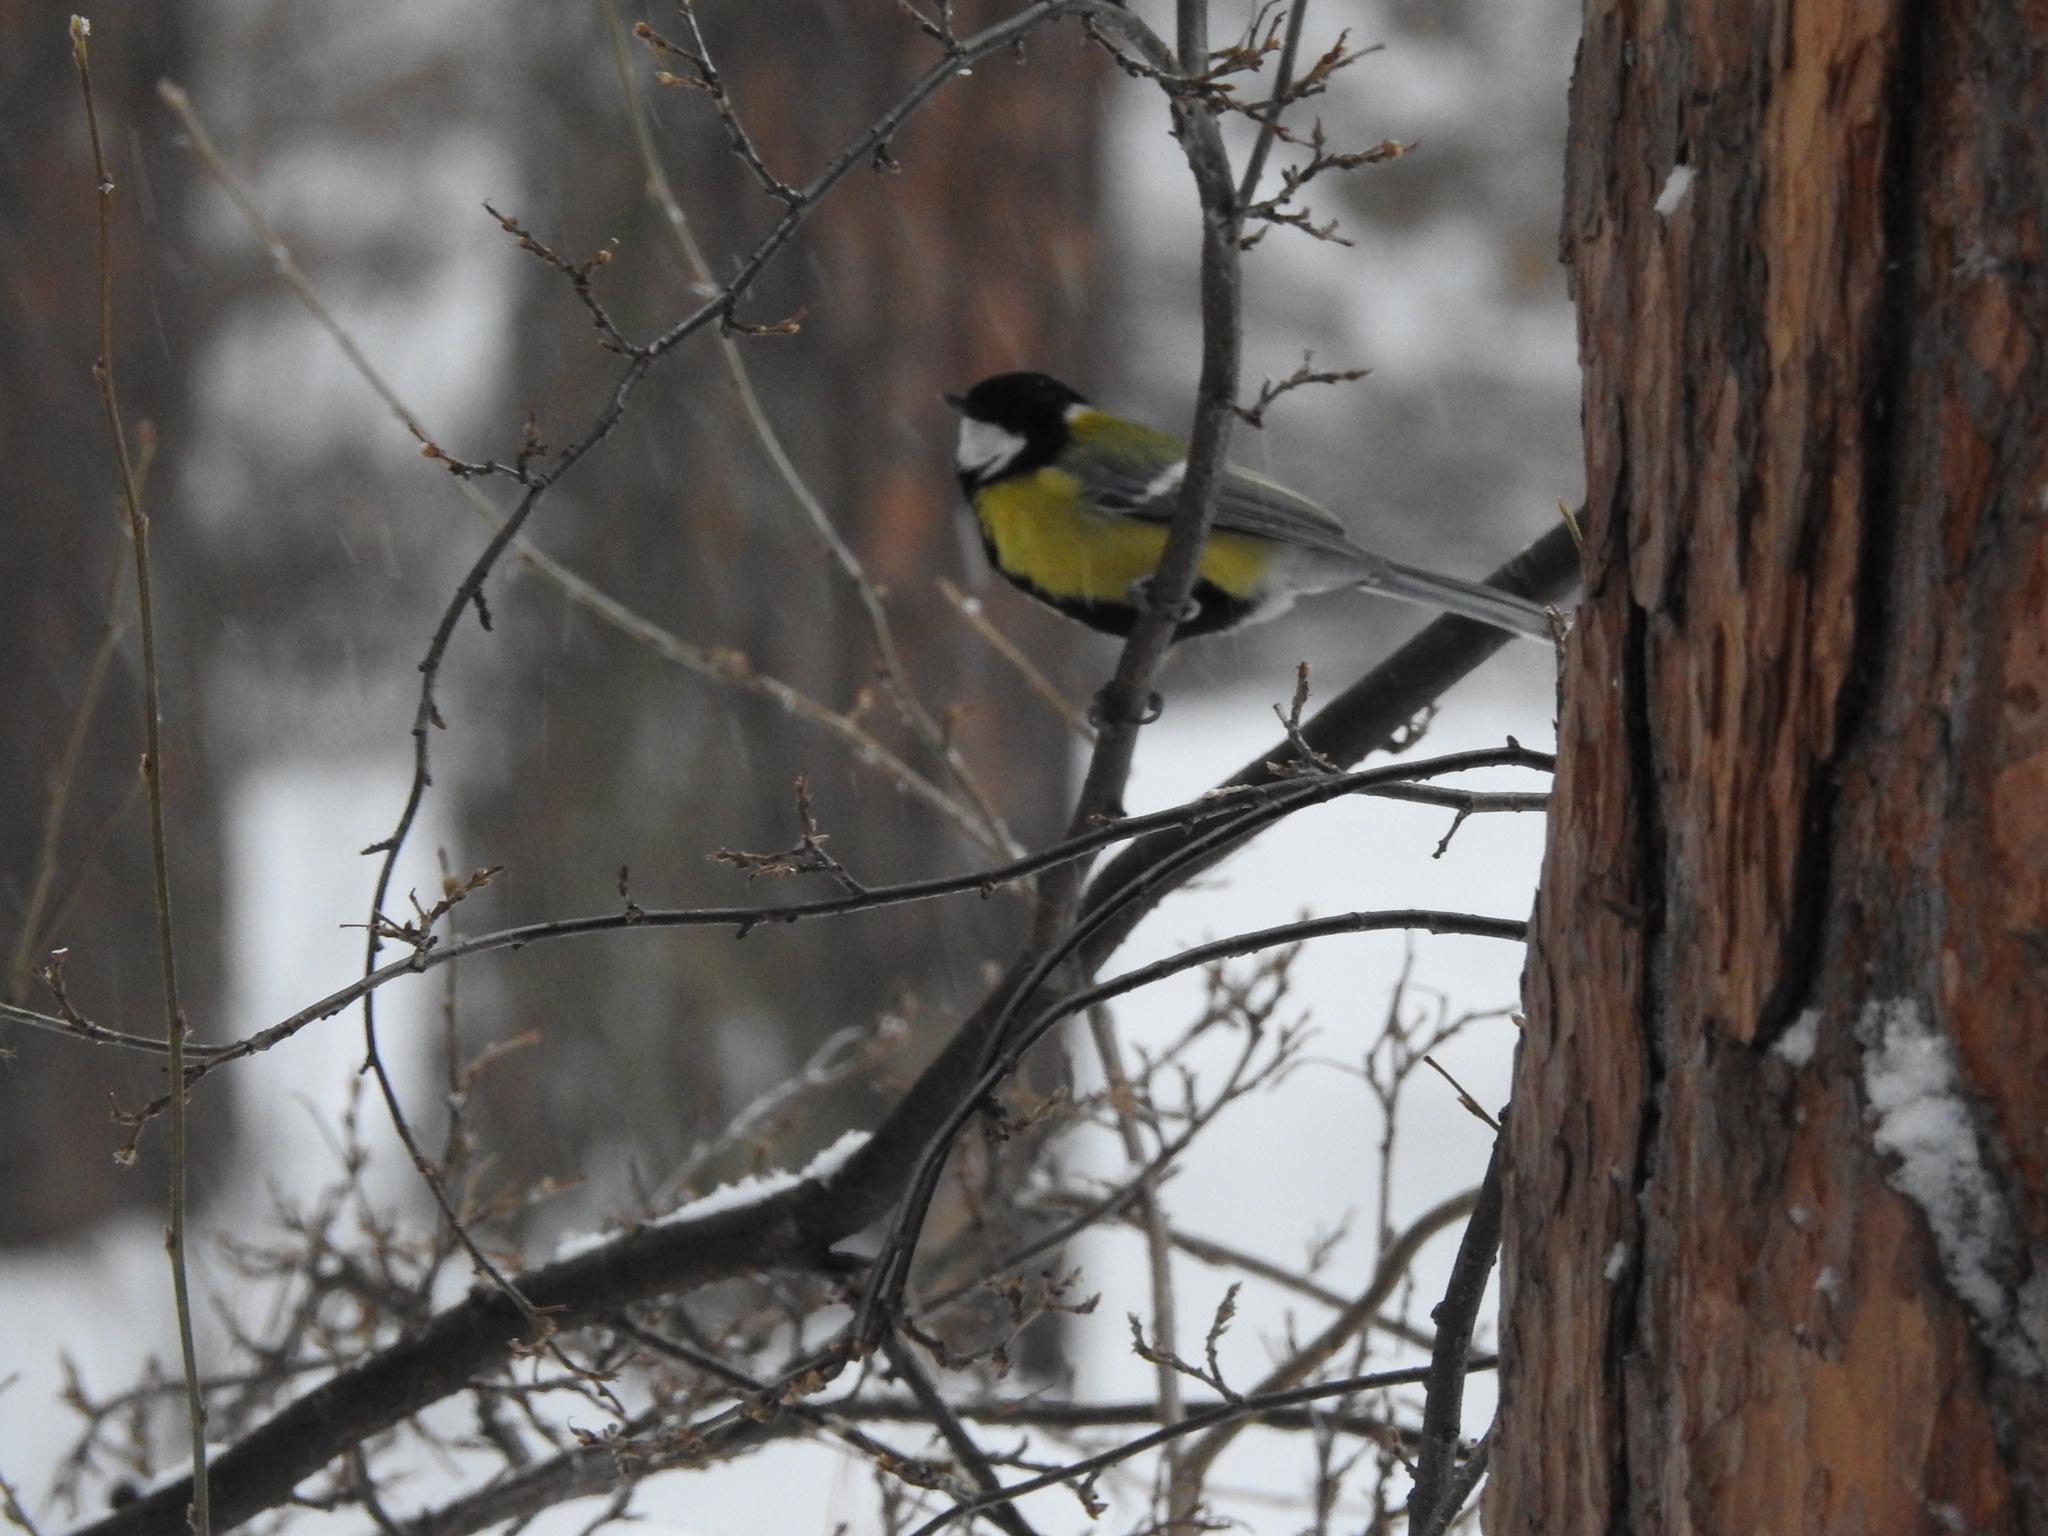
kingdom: Animalia
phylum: Chordata
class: Aves
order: Passeriformes
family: Paridae
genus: Parus
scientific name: Parus major
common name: Great tit
